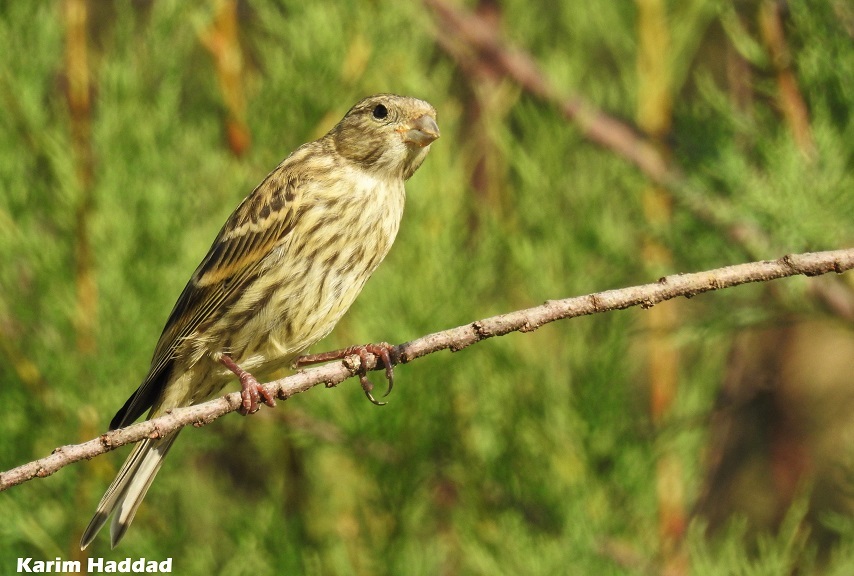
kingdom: Animalia
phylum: Chordata
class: Aves
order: Passeriformes
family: Fringillidae
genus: Linaria
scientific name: Linaria cannabina
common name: Common linnet
